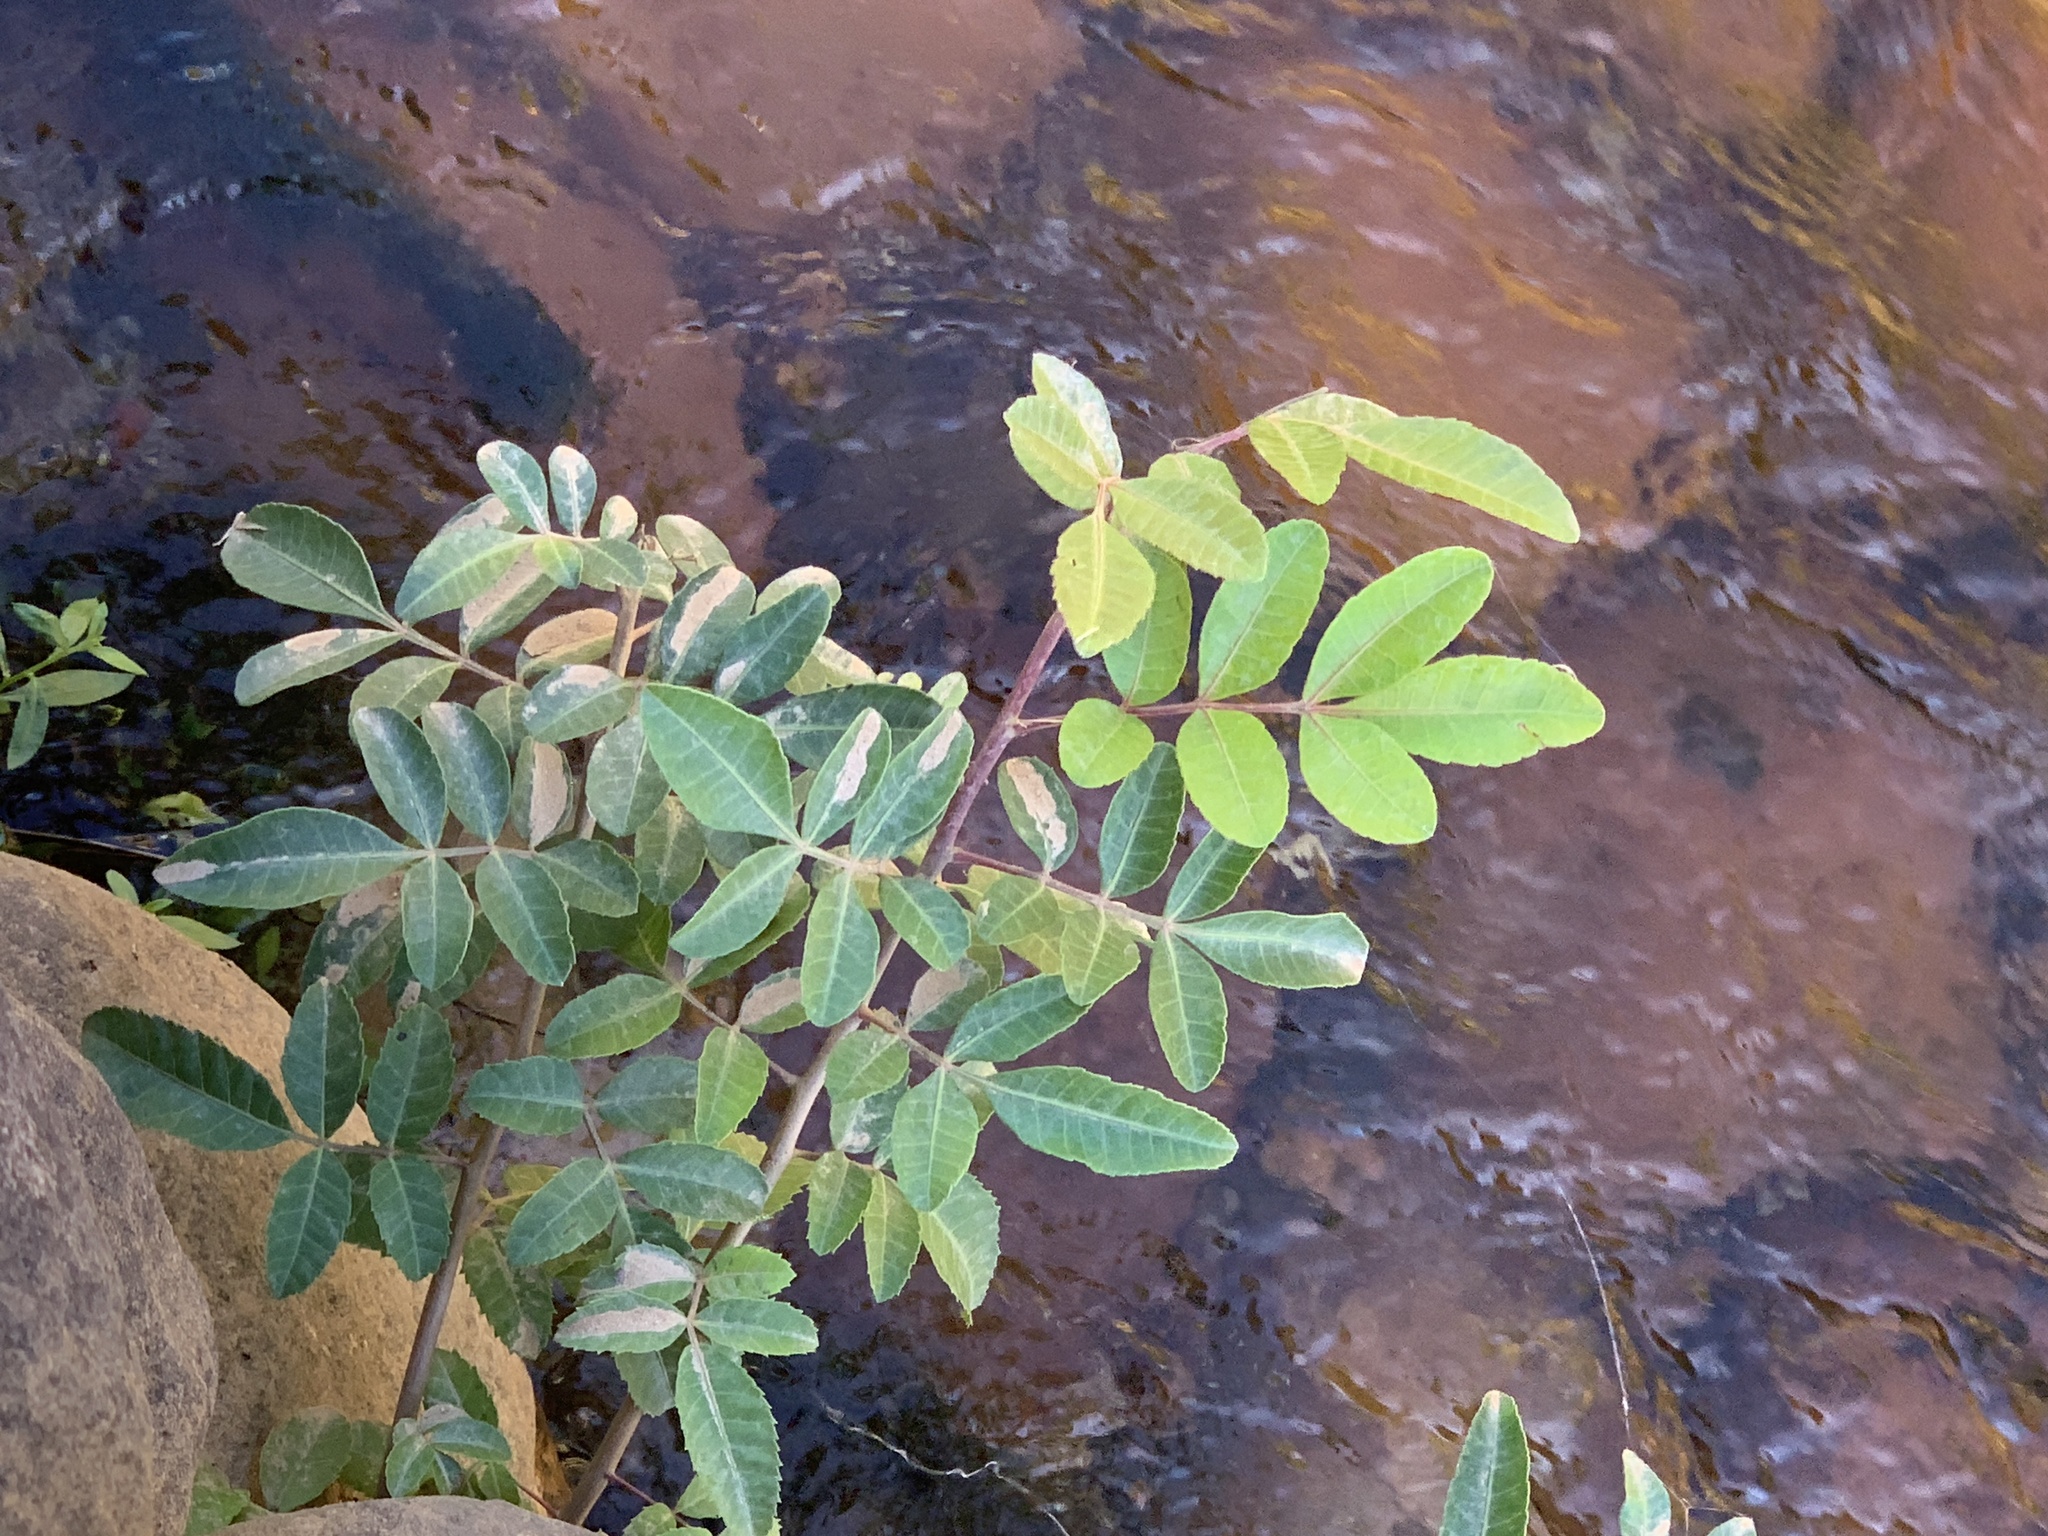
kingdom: Plantae
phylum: Tracheophyta
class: Magnoliopsida
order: Sapindales
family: Anacardiaceae
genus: Schinus
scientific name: Schinus terebinthifolia
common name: Brazilian peppertree
